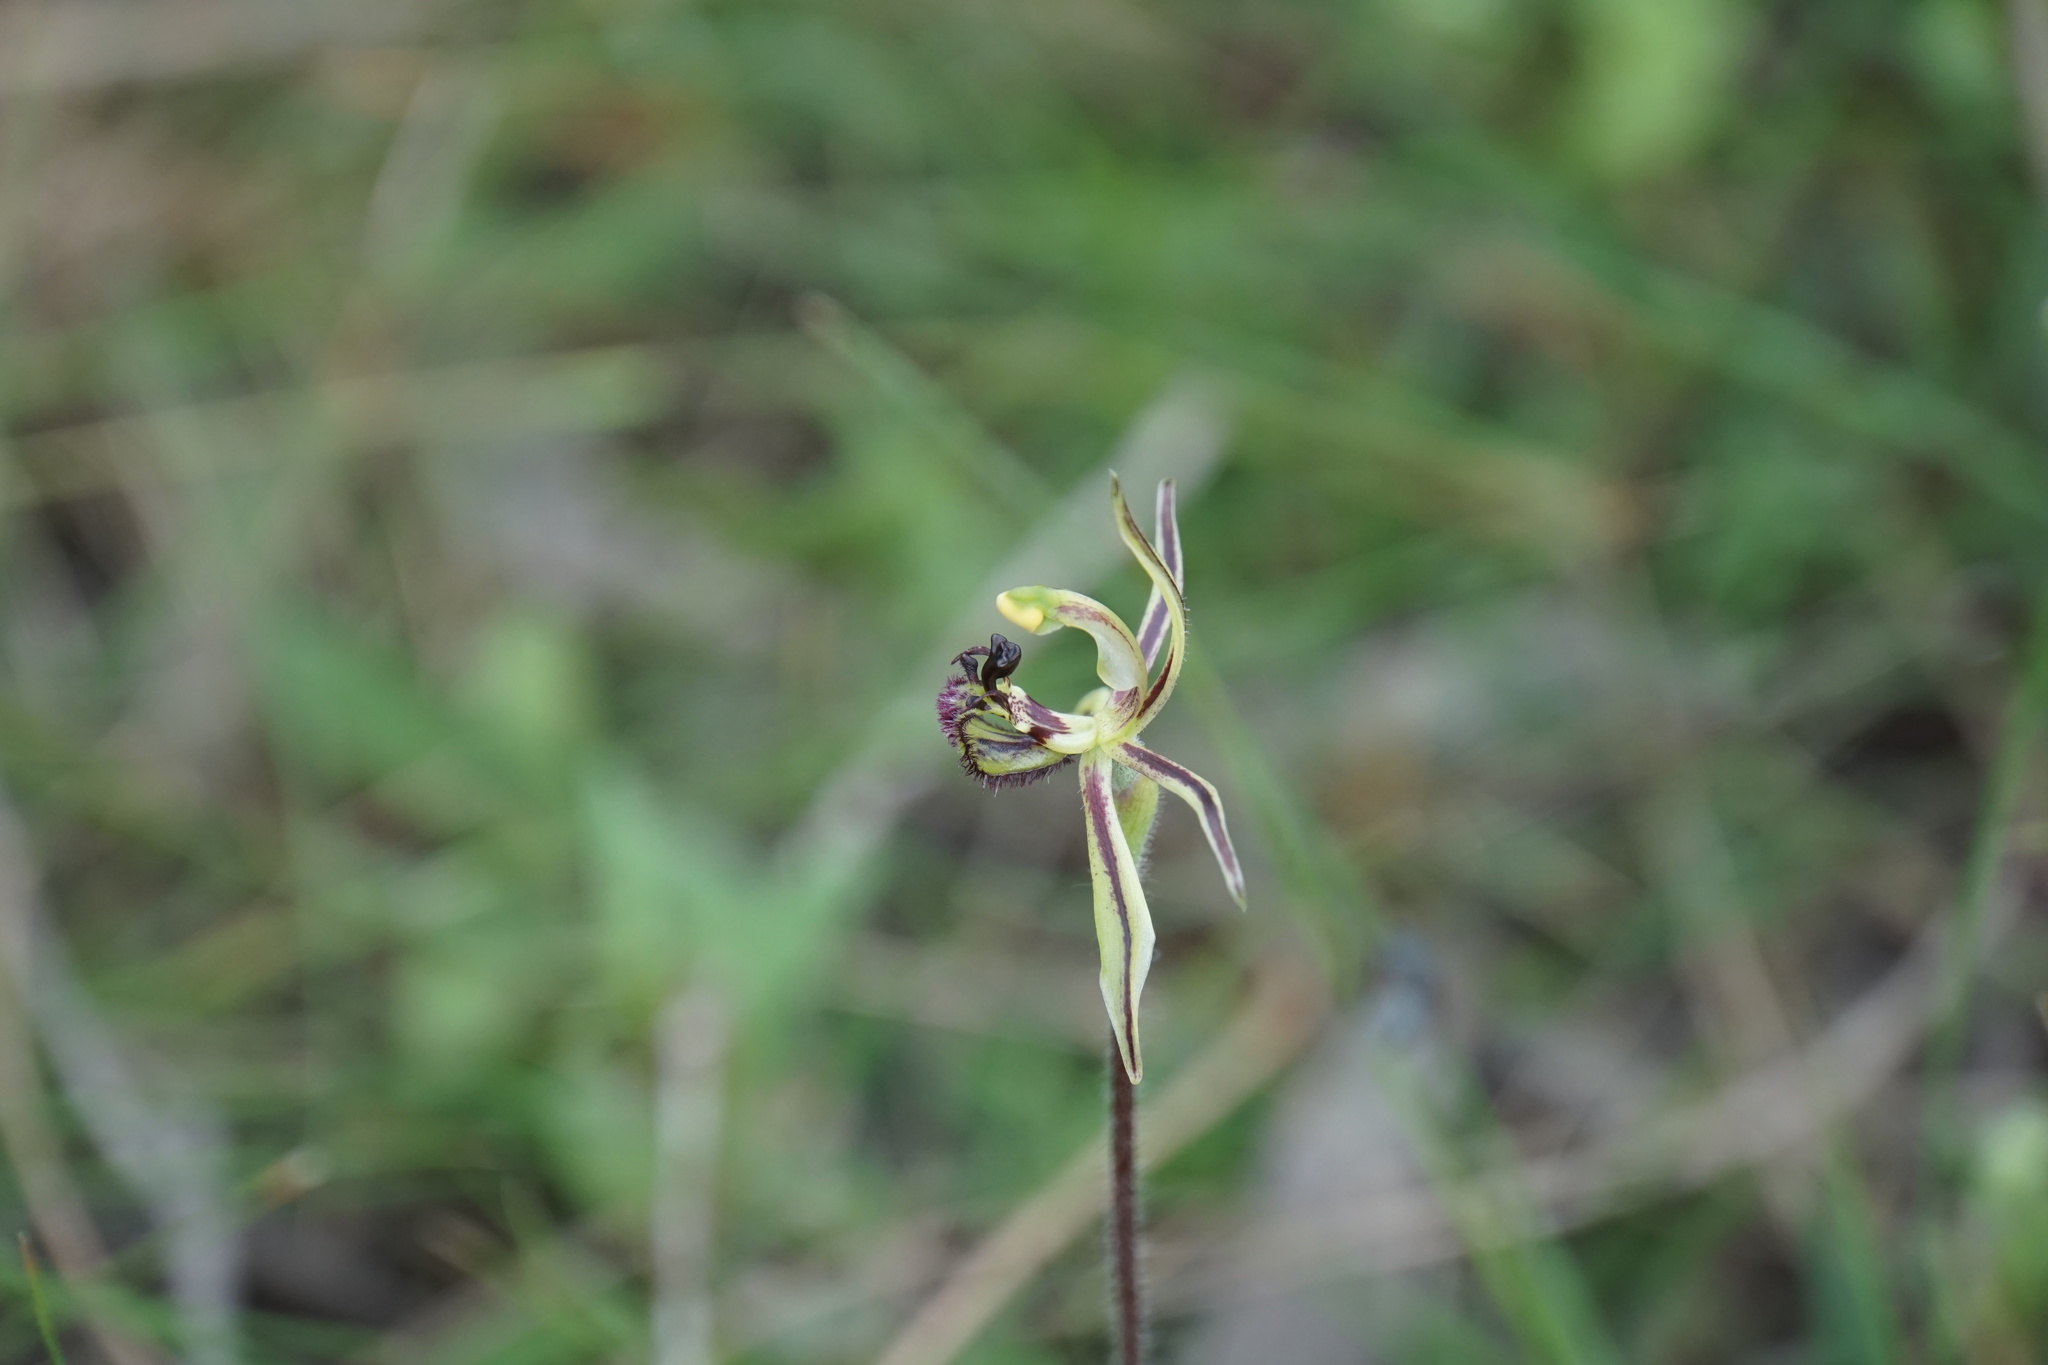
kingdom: Plantae
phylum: Tracheophyta
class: Liliopsida
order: Asparagales
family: Orchidaceae
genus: Caladenia
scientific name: Caladenia barbarossa
